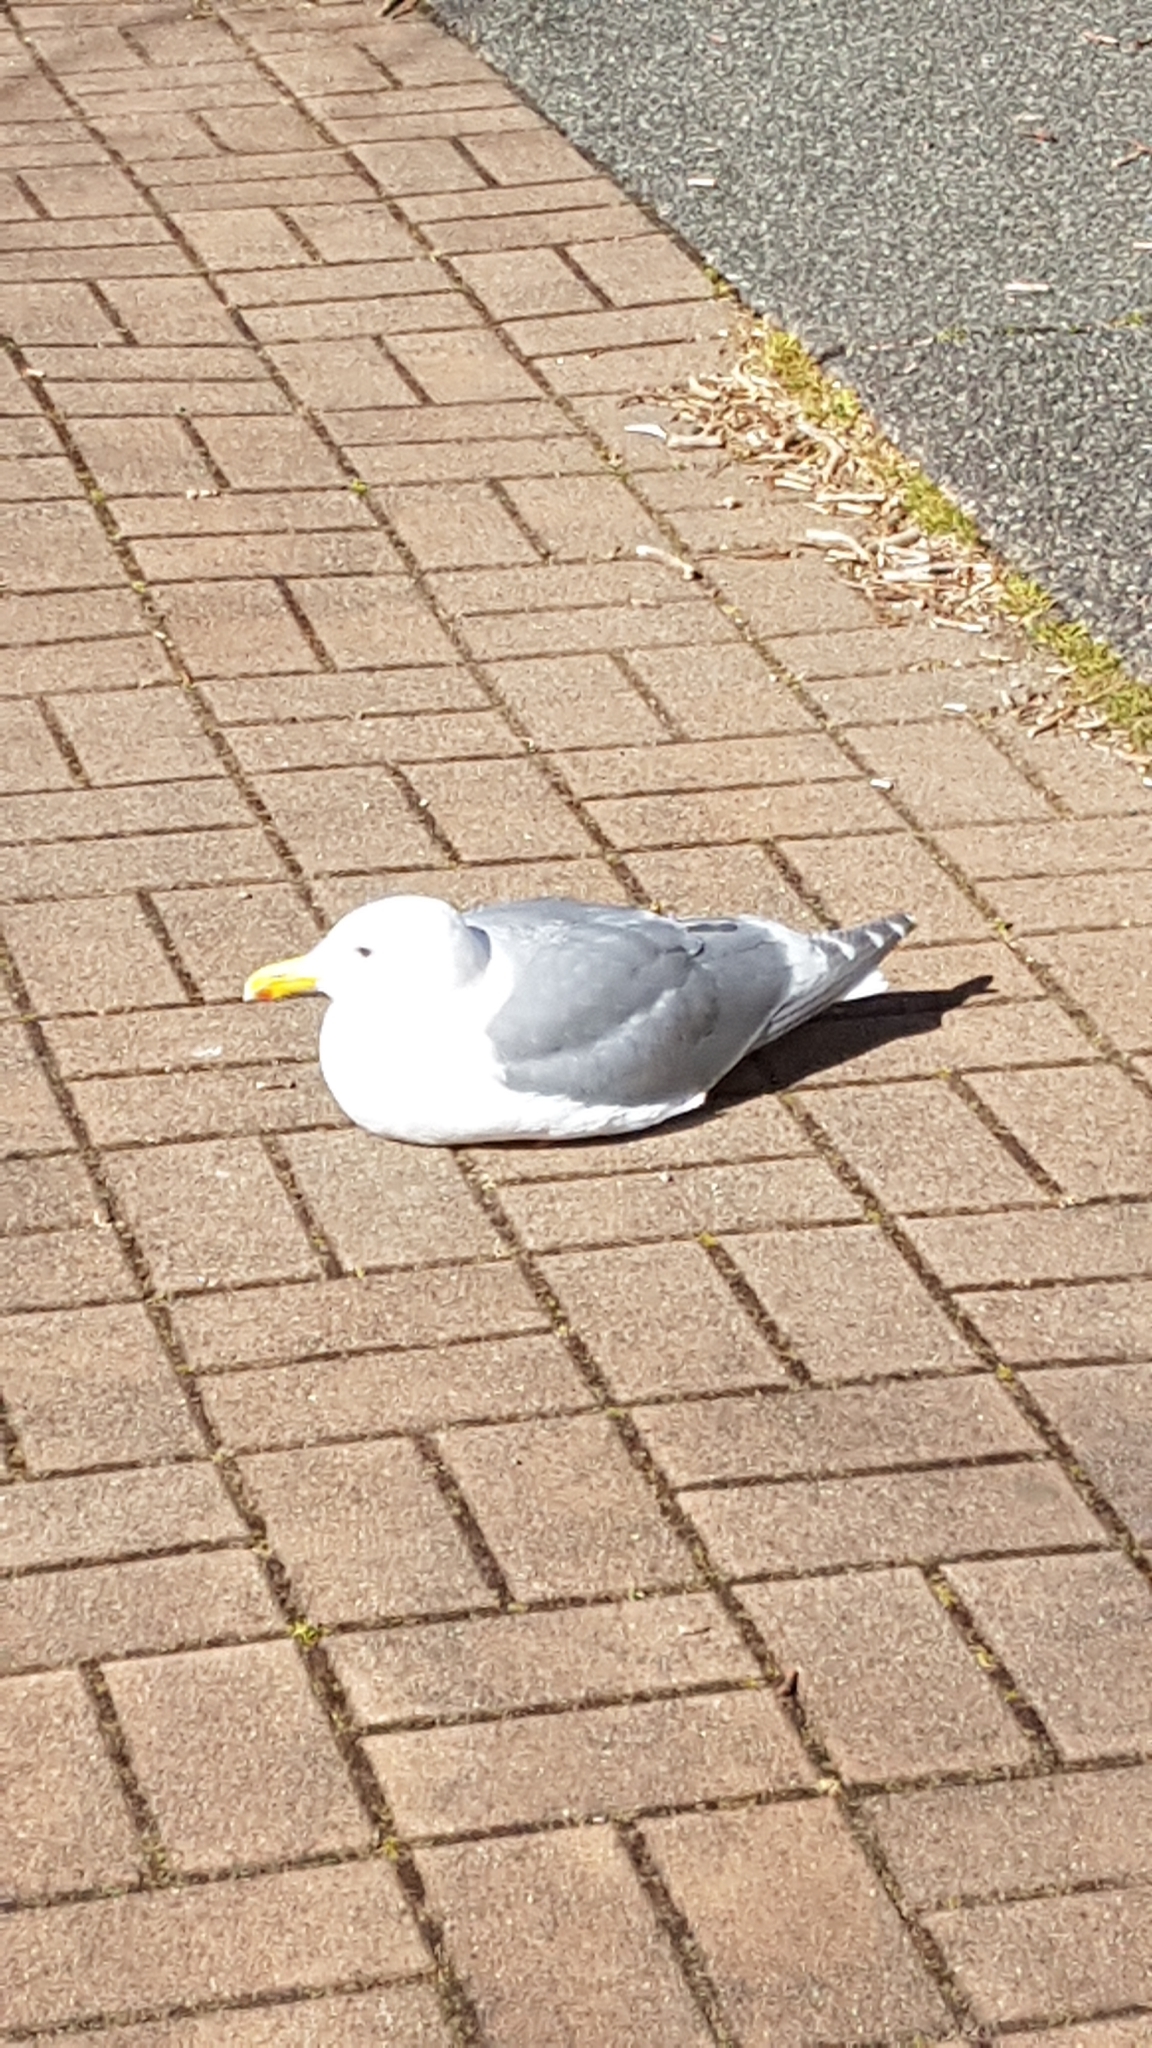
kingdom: Animalia
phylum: Chordata
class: Aves
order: Charadriiformes
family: Laridae
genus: Larus
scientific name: Larus glaucescens
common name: Glaucous-winged gull
